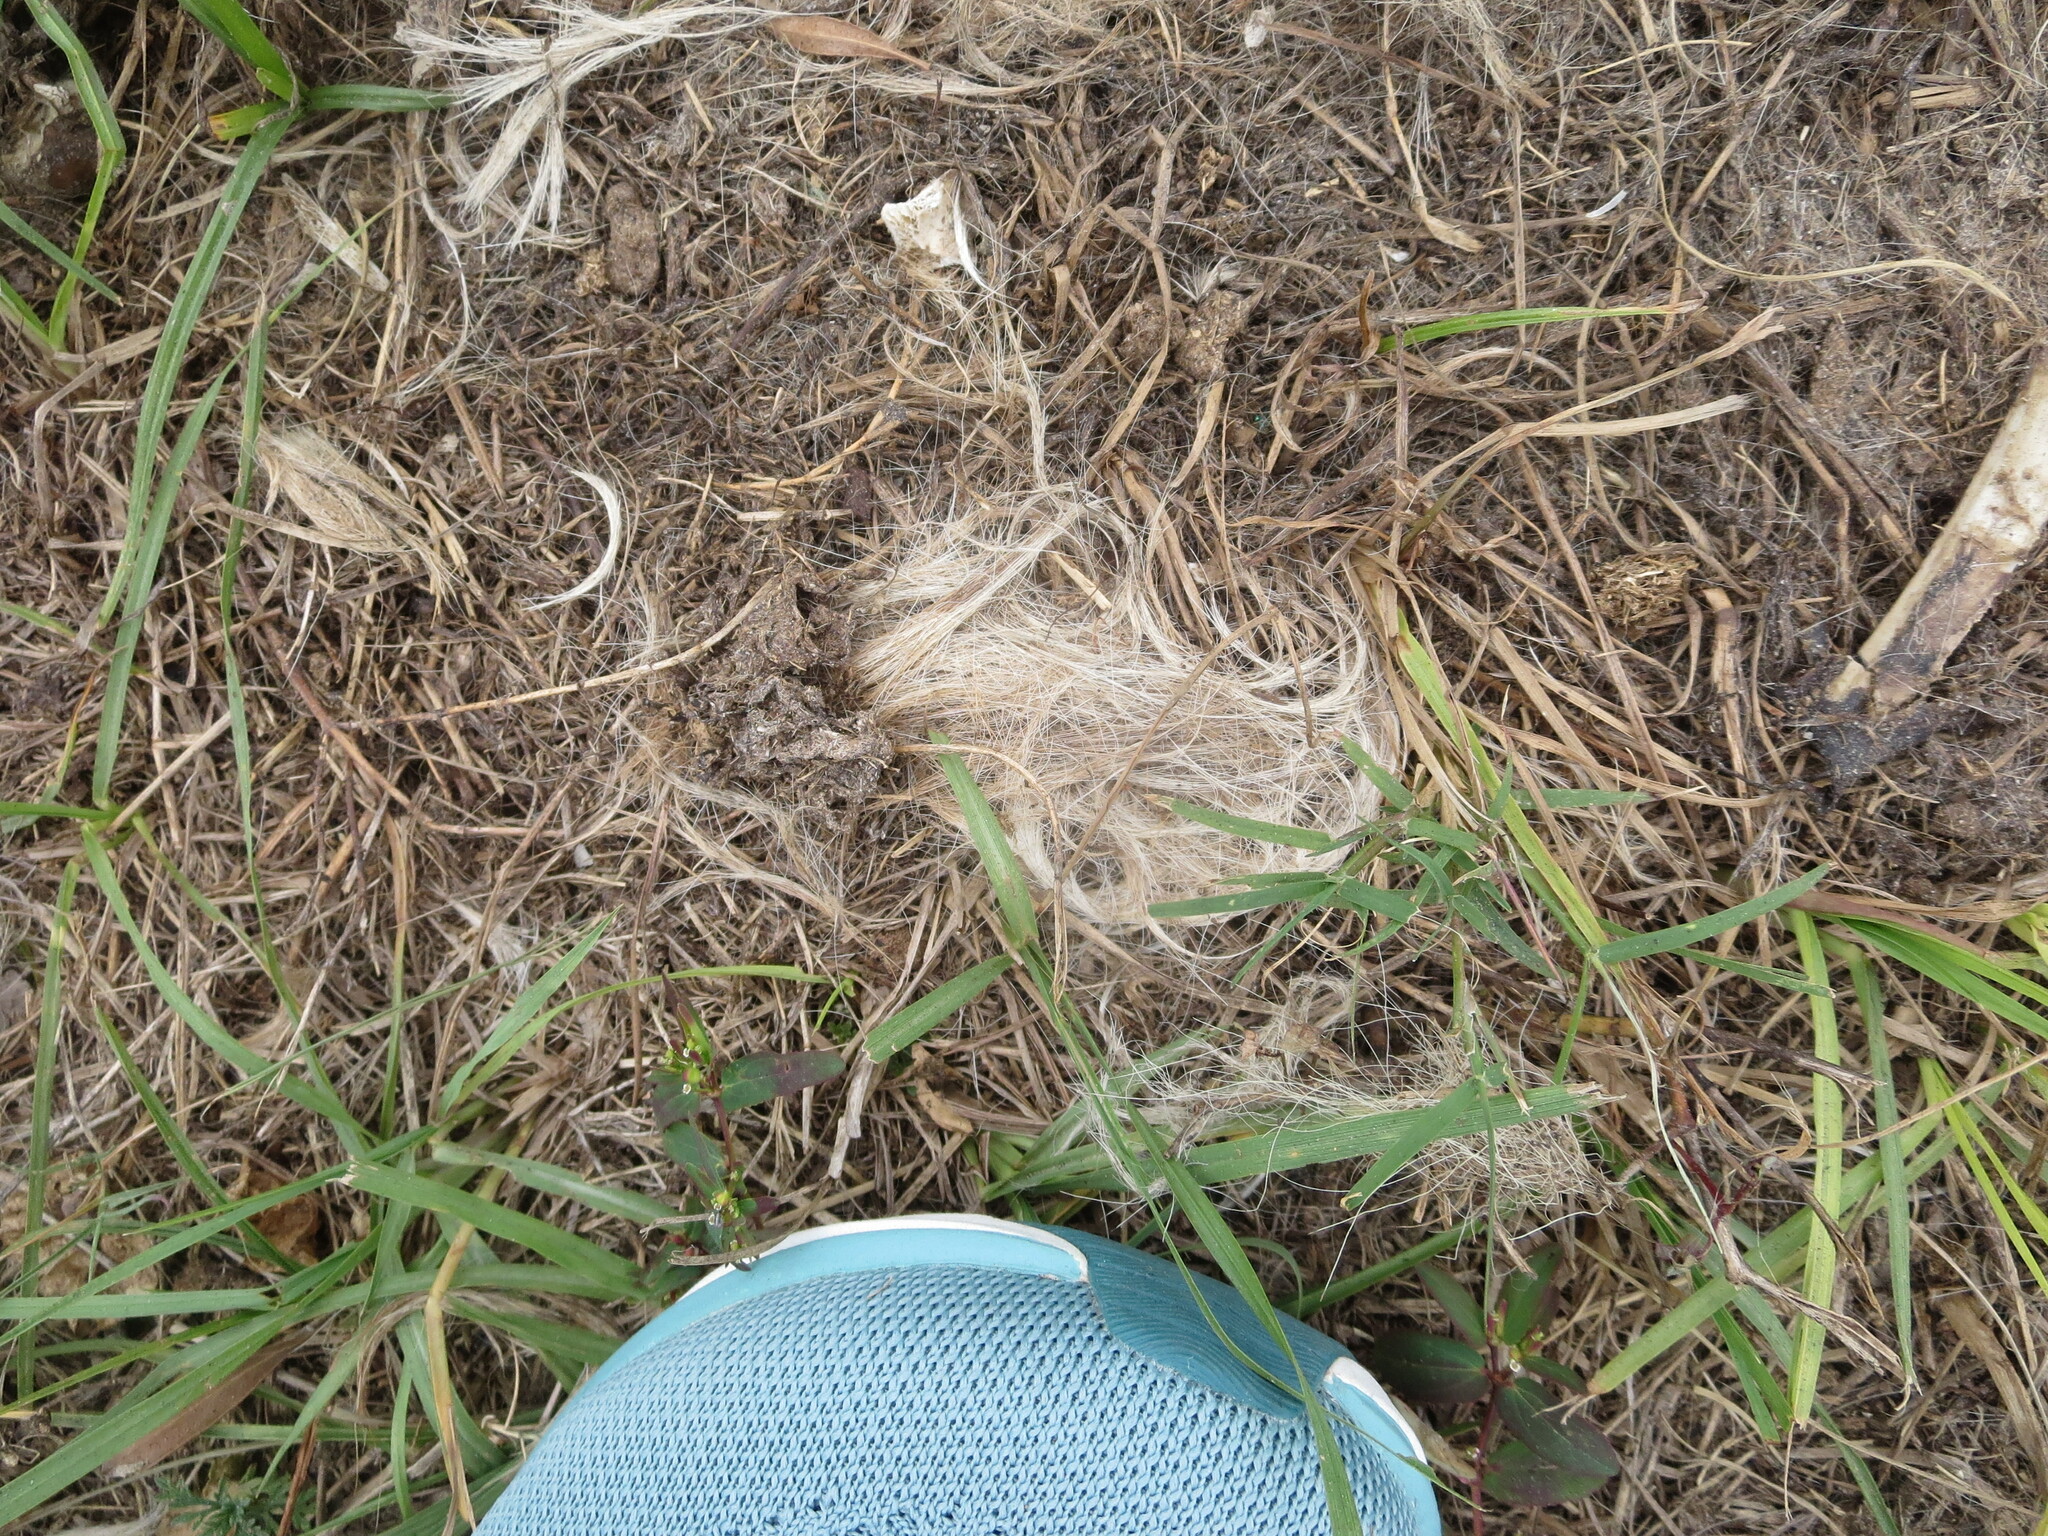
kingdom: Animalia
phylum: Chordata
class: Mammalia
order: Artiodactyla
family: Cervidae
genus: Odocoileus
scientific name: Odocoileus virginianus
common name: White-tailed deer
